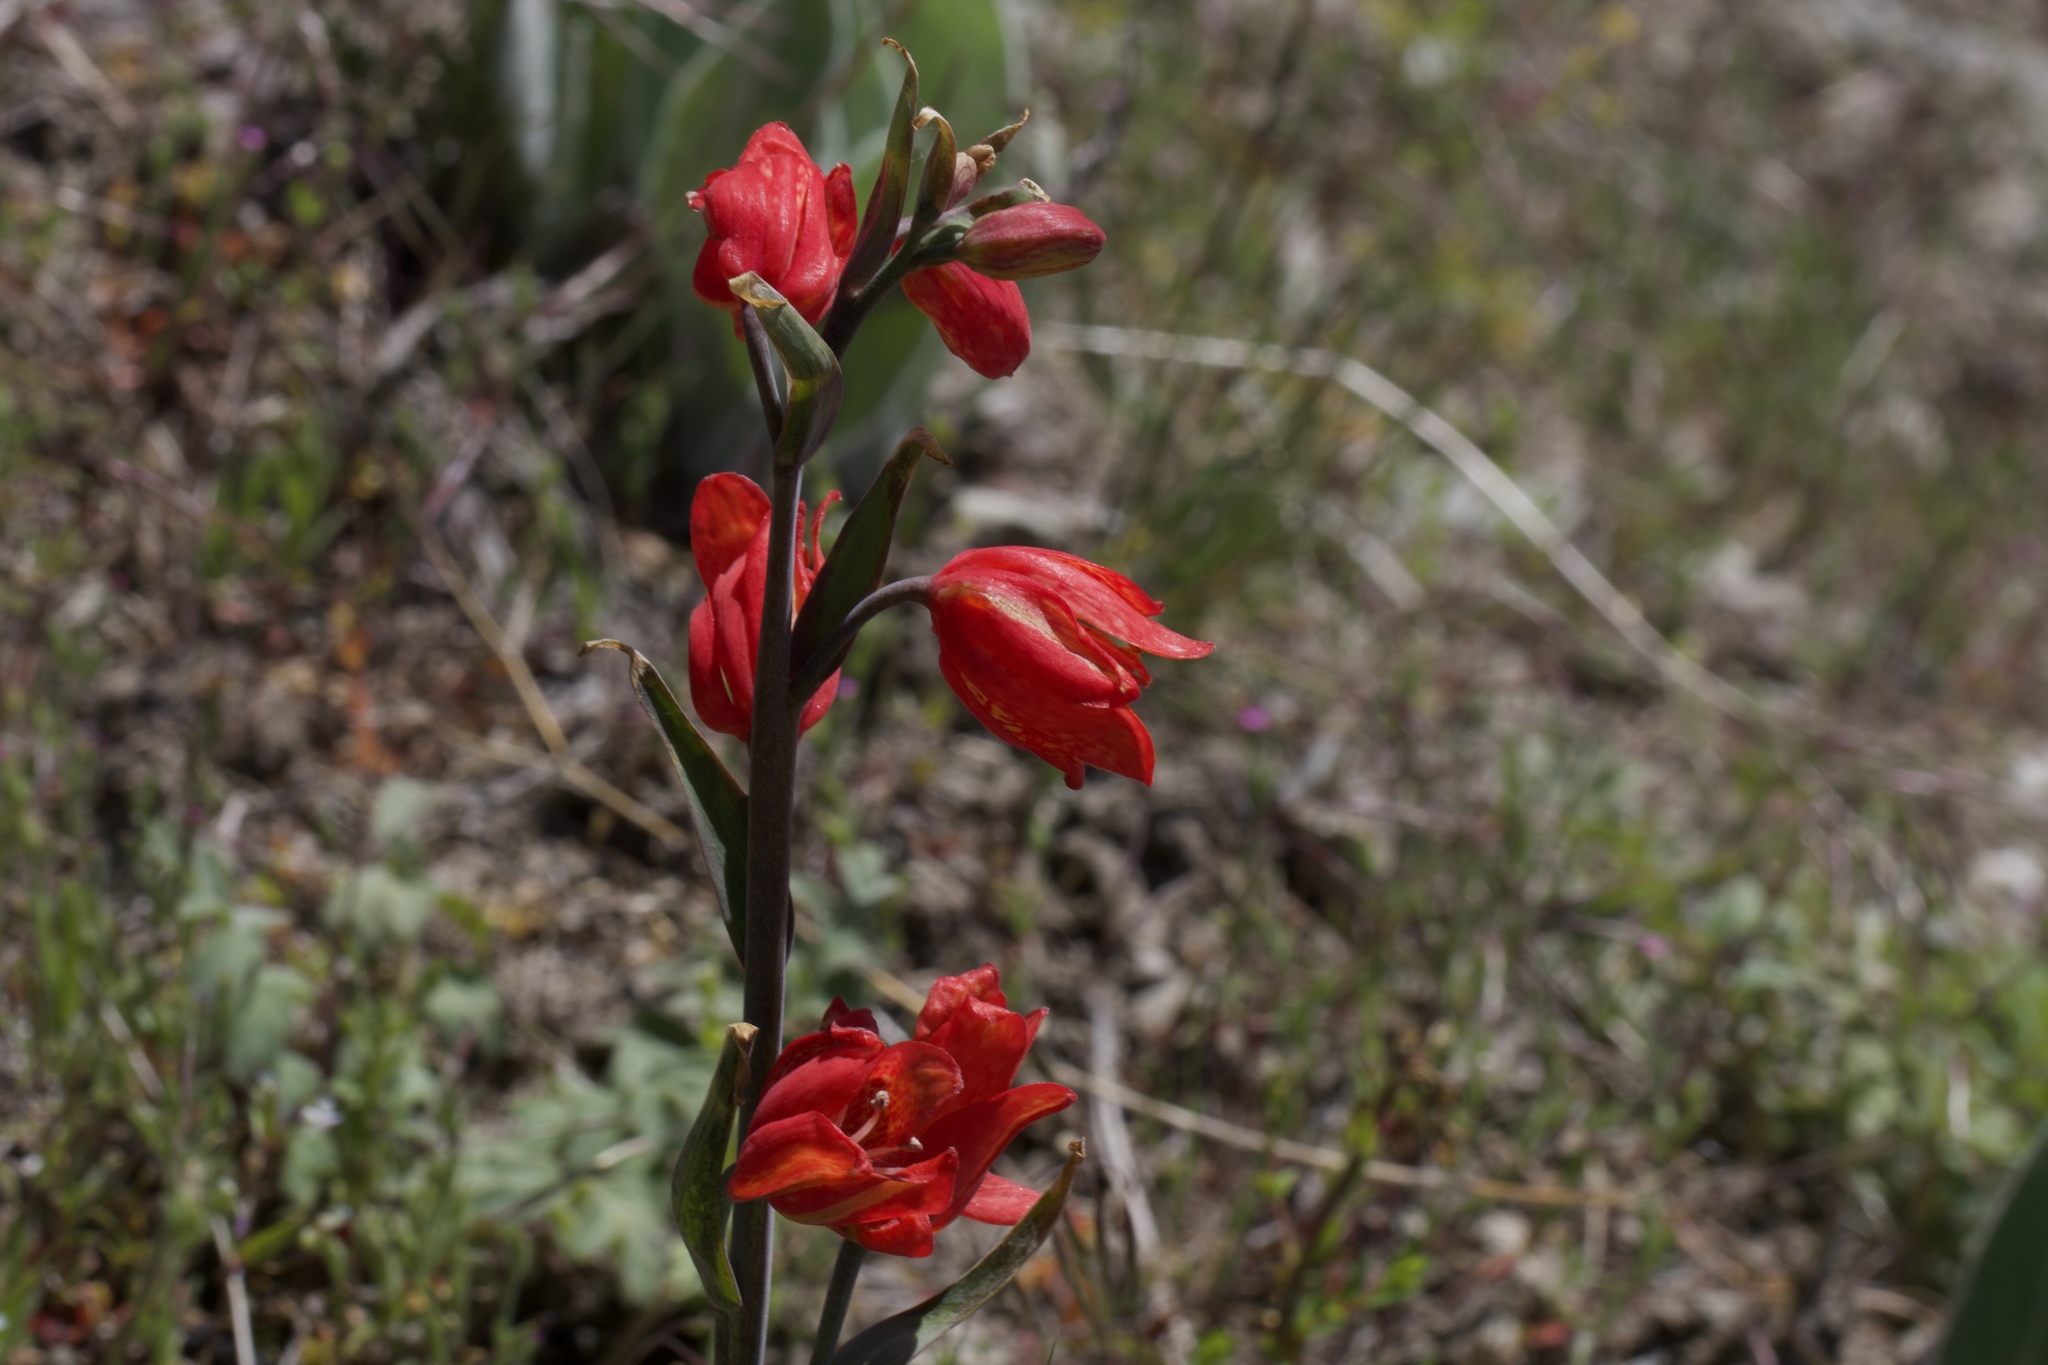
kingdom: Plantae
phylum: Tracheophyta
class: Liliopsida
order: Liliales
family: Liliaceae
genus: Fritillaria
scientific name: Fritillaria recurva
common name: Scarlet fritillary
